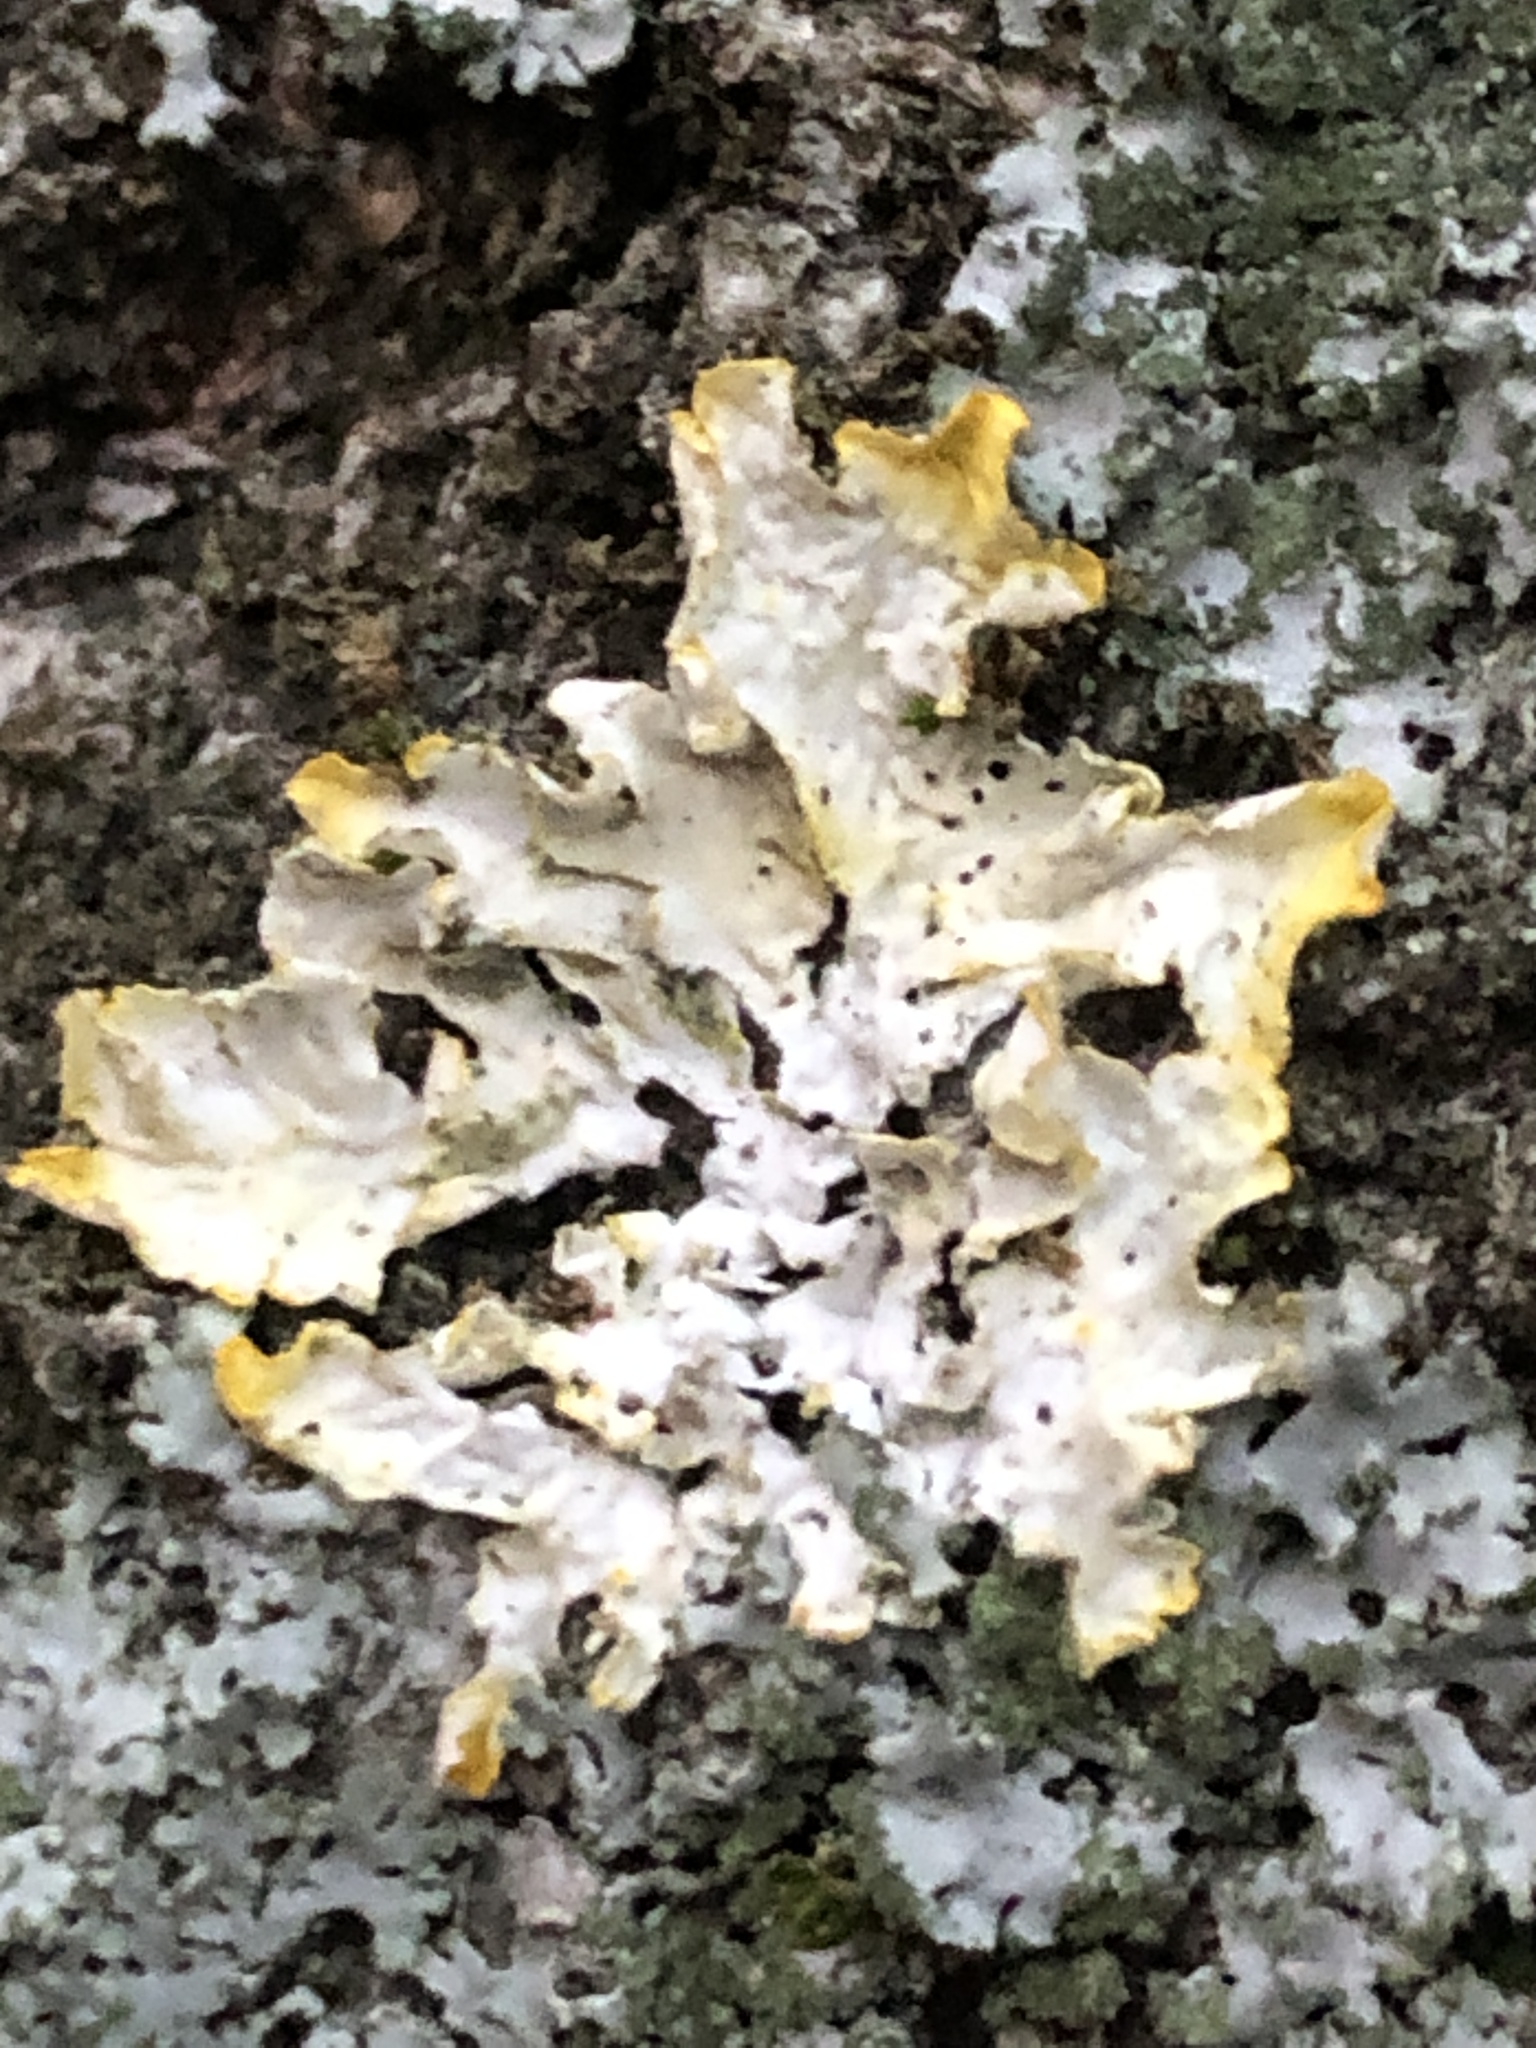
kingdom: Fungi
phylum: Ascomycota
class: Lecanoromycetes
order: Teloschistales
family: Teloschistaceae
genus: Xanthoria
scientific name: Xanthoria parietina
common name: Common orange lichen
